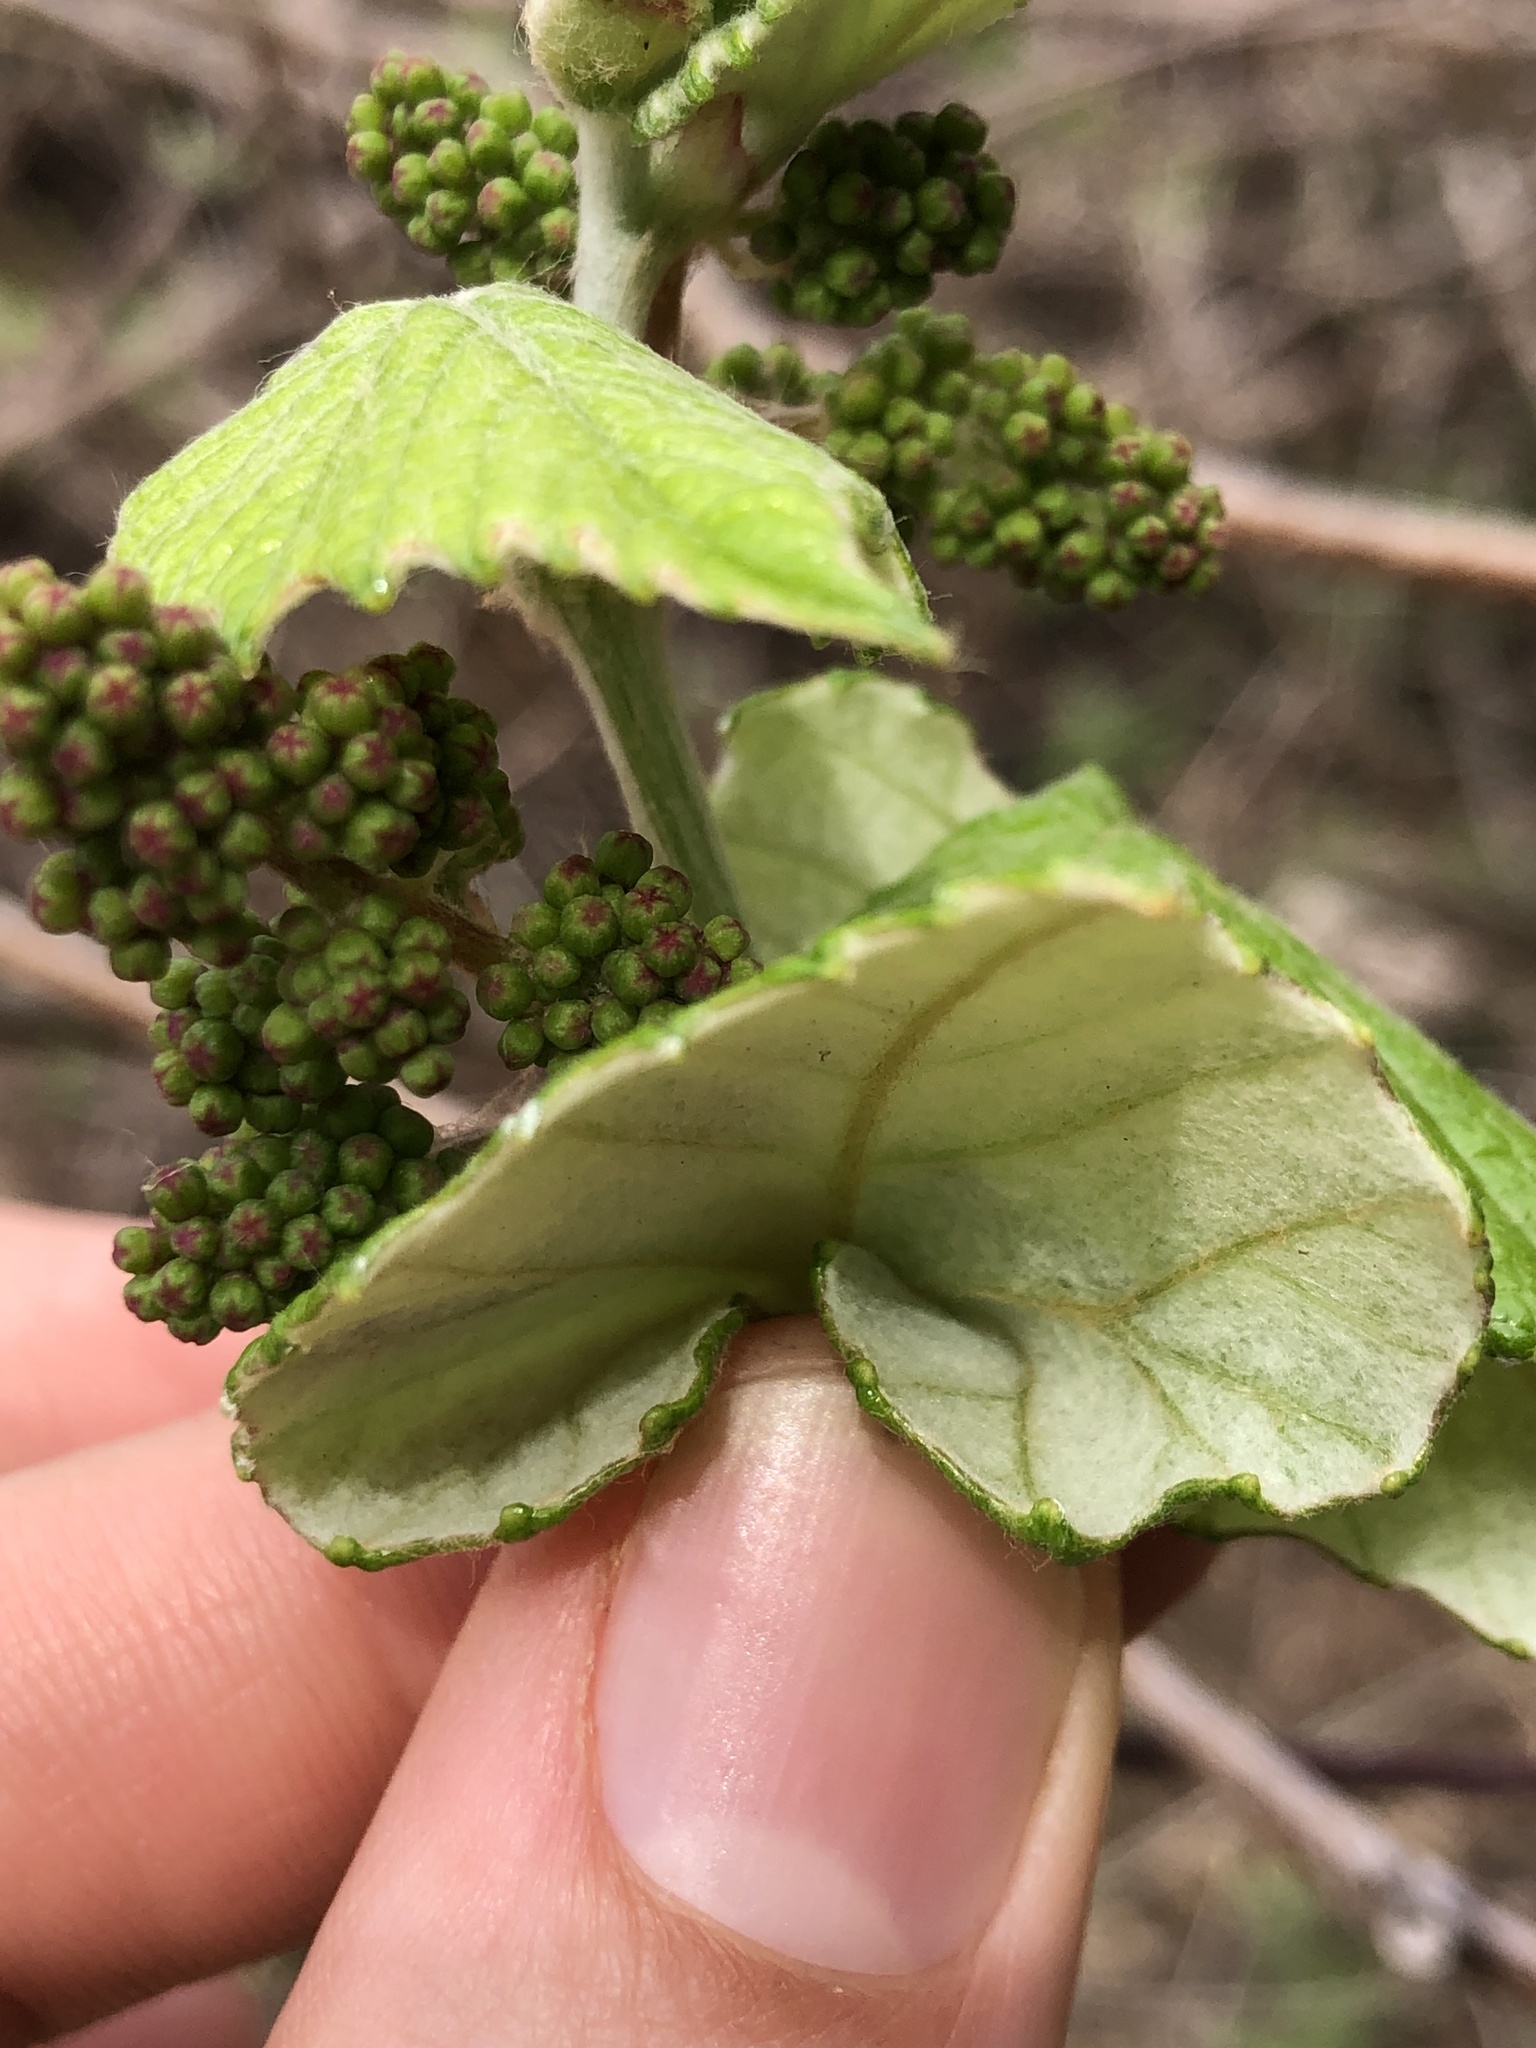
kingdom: Plantae
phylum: Tracheophyta
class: Magnoliopsida
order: Vitales
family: Vitaceae
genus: Vitis
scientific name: Vitis mustangensis
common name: Mustang grape
